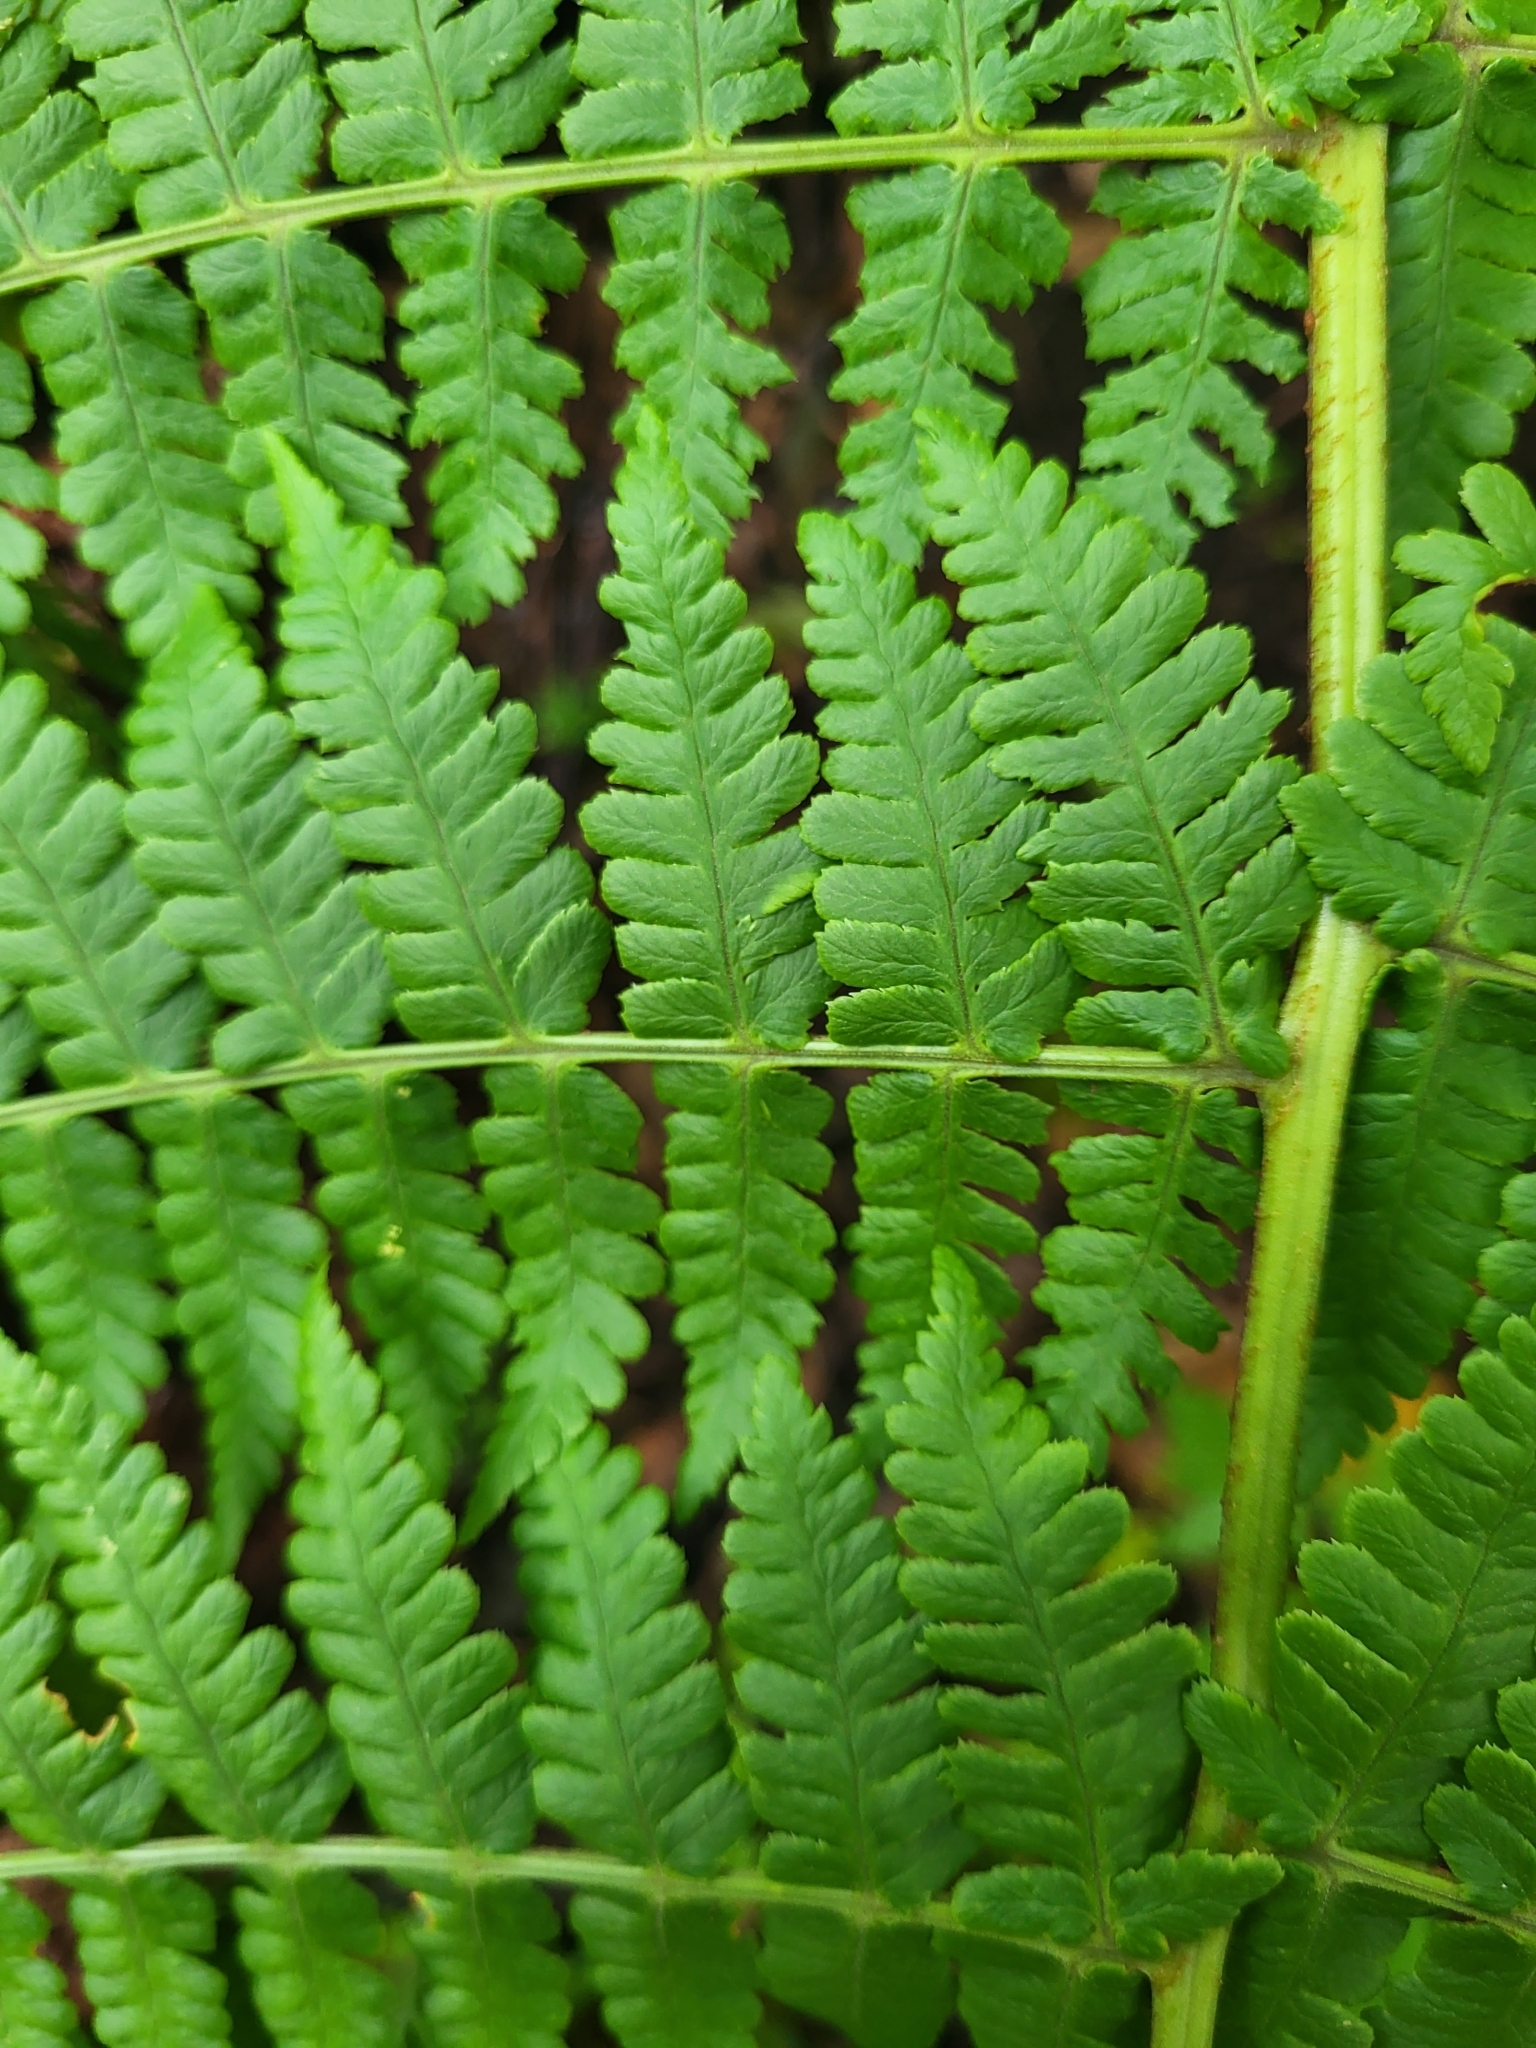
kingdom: Plantae
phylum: Tracheophyta
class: Polypodiopsida
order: Polypodiales
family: Dryopteridaceae
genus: Dryopteris
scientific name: Dryopteris oligodonta
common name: Canarian male-fern
